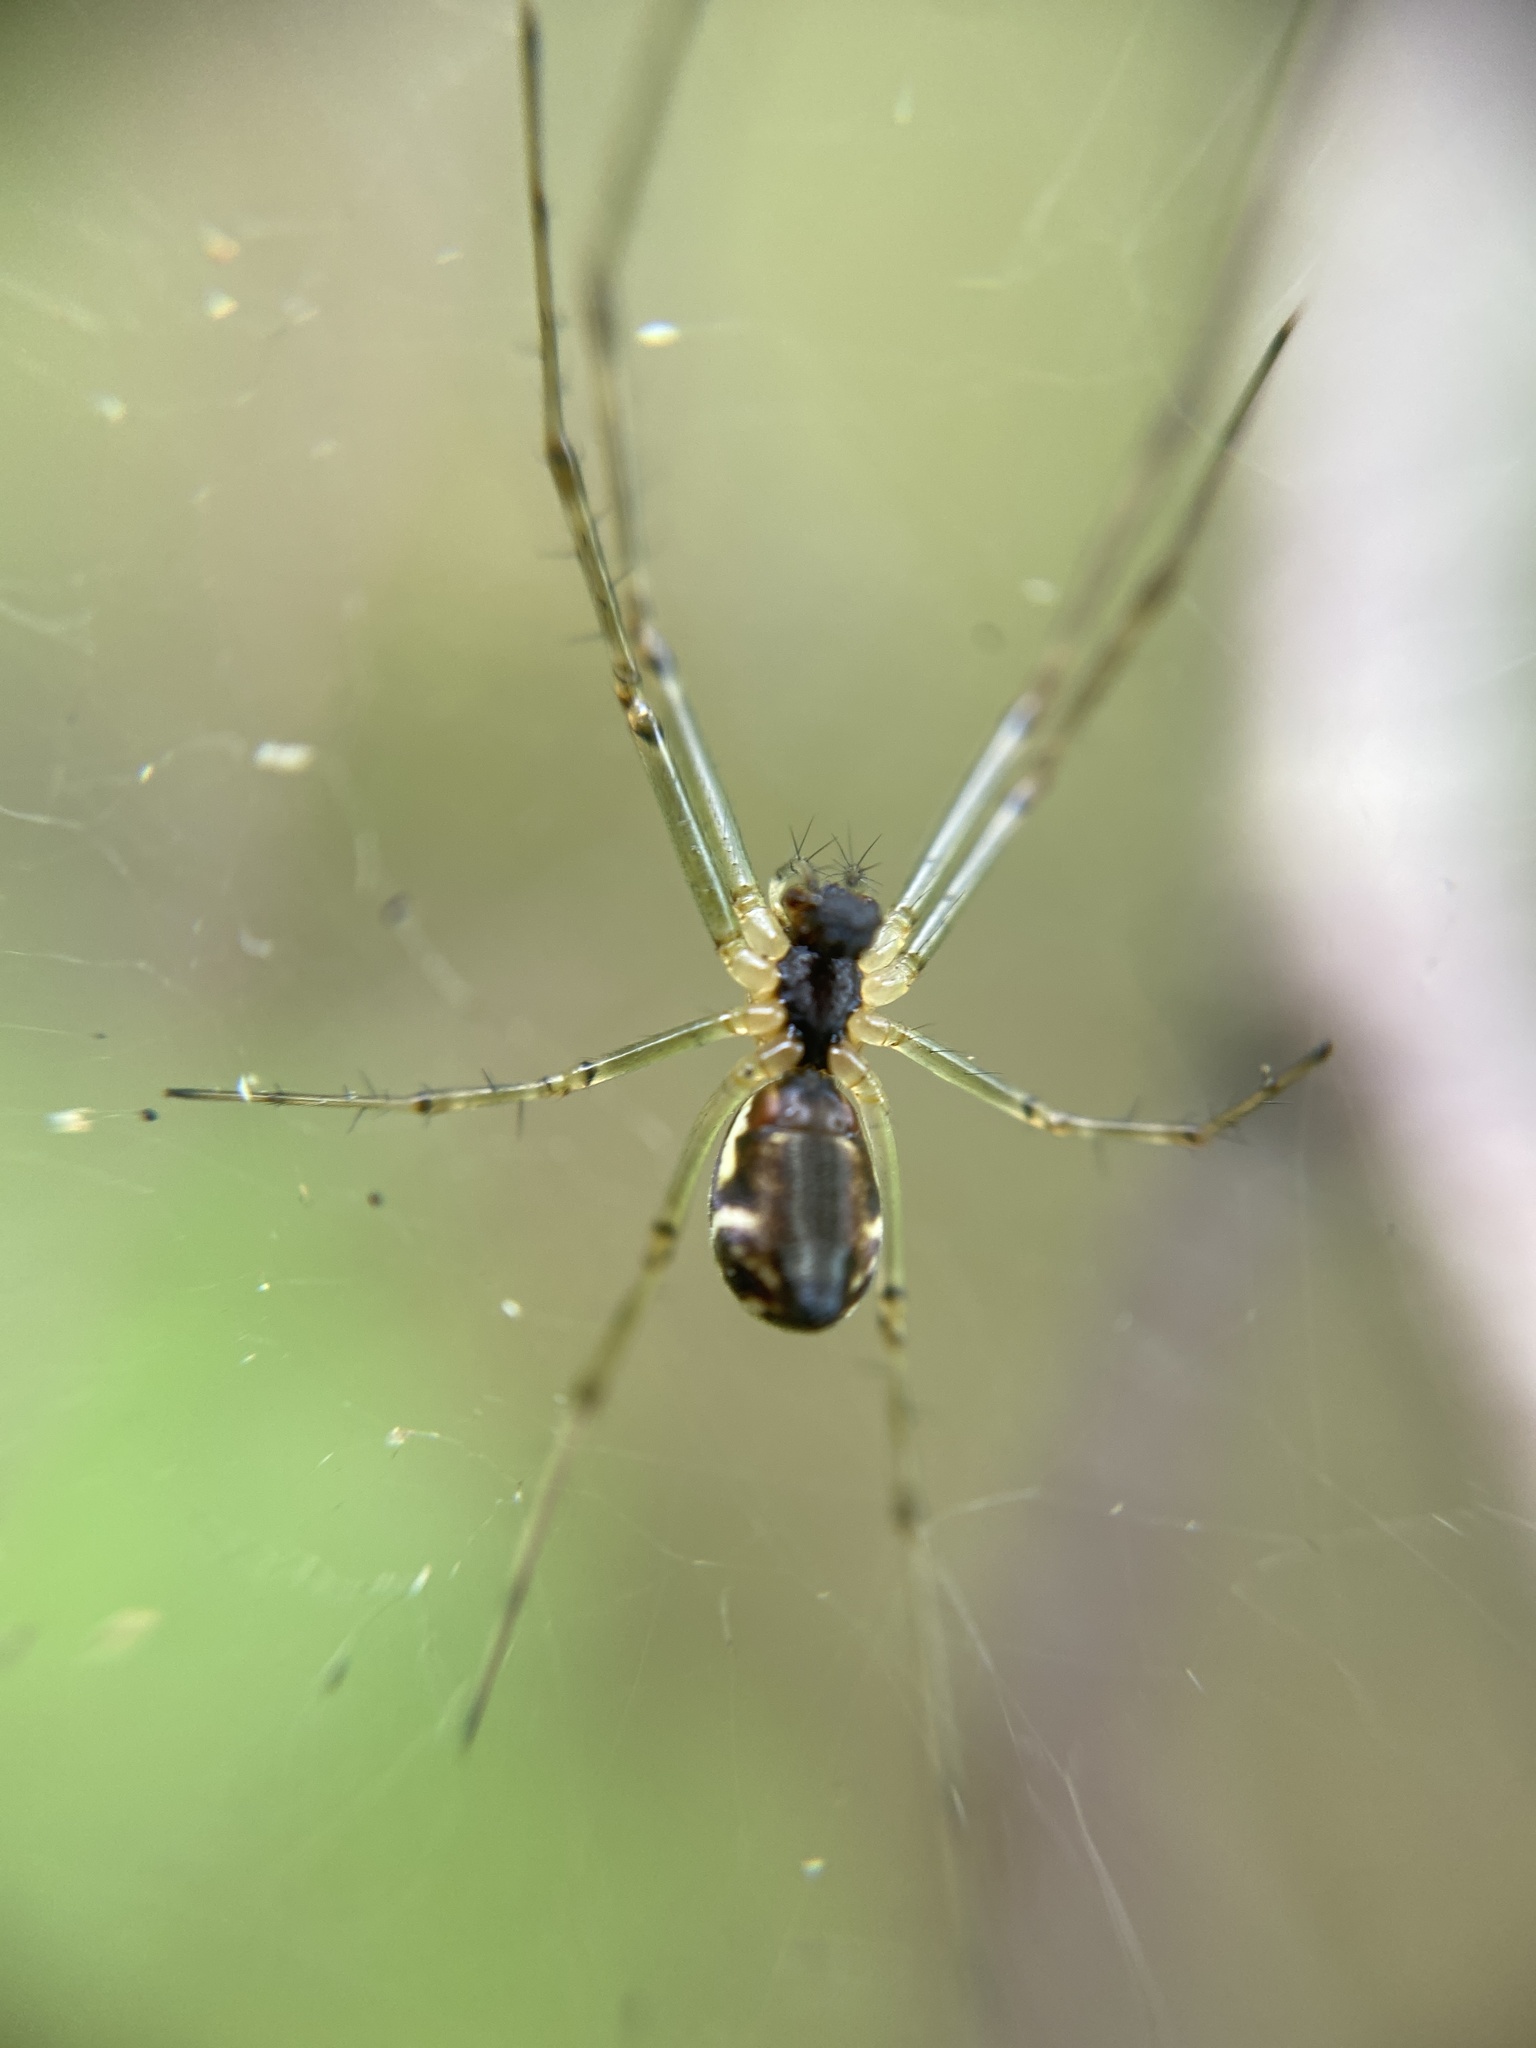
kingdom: Animalia
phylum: Arthropoda
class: Arachnida
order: Araneae
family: Linyphiidae
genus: Linyphia
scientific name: Linyphia triangularis
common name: Money spider
